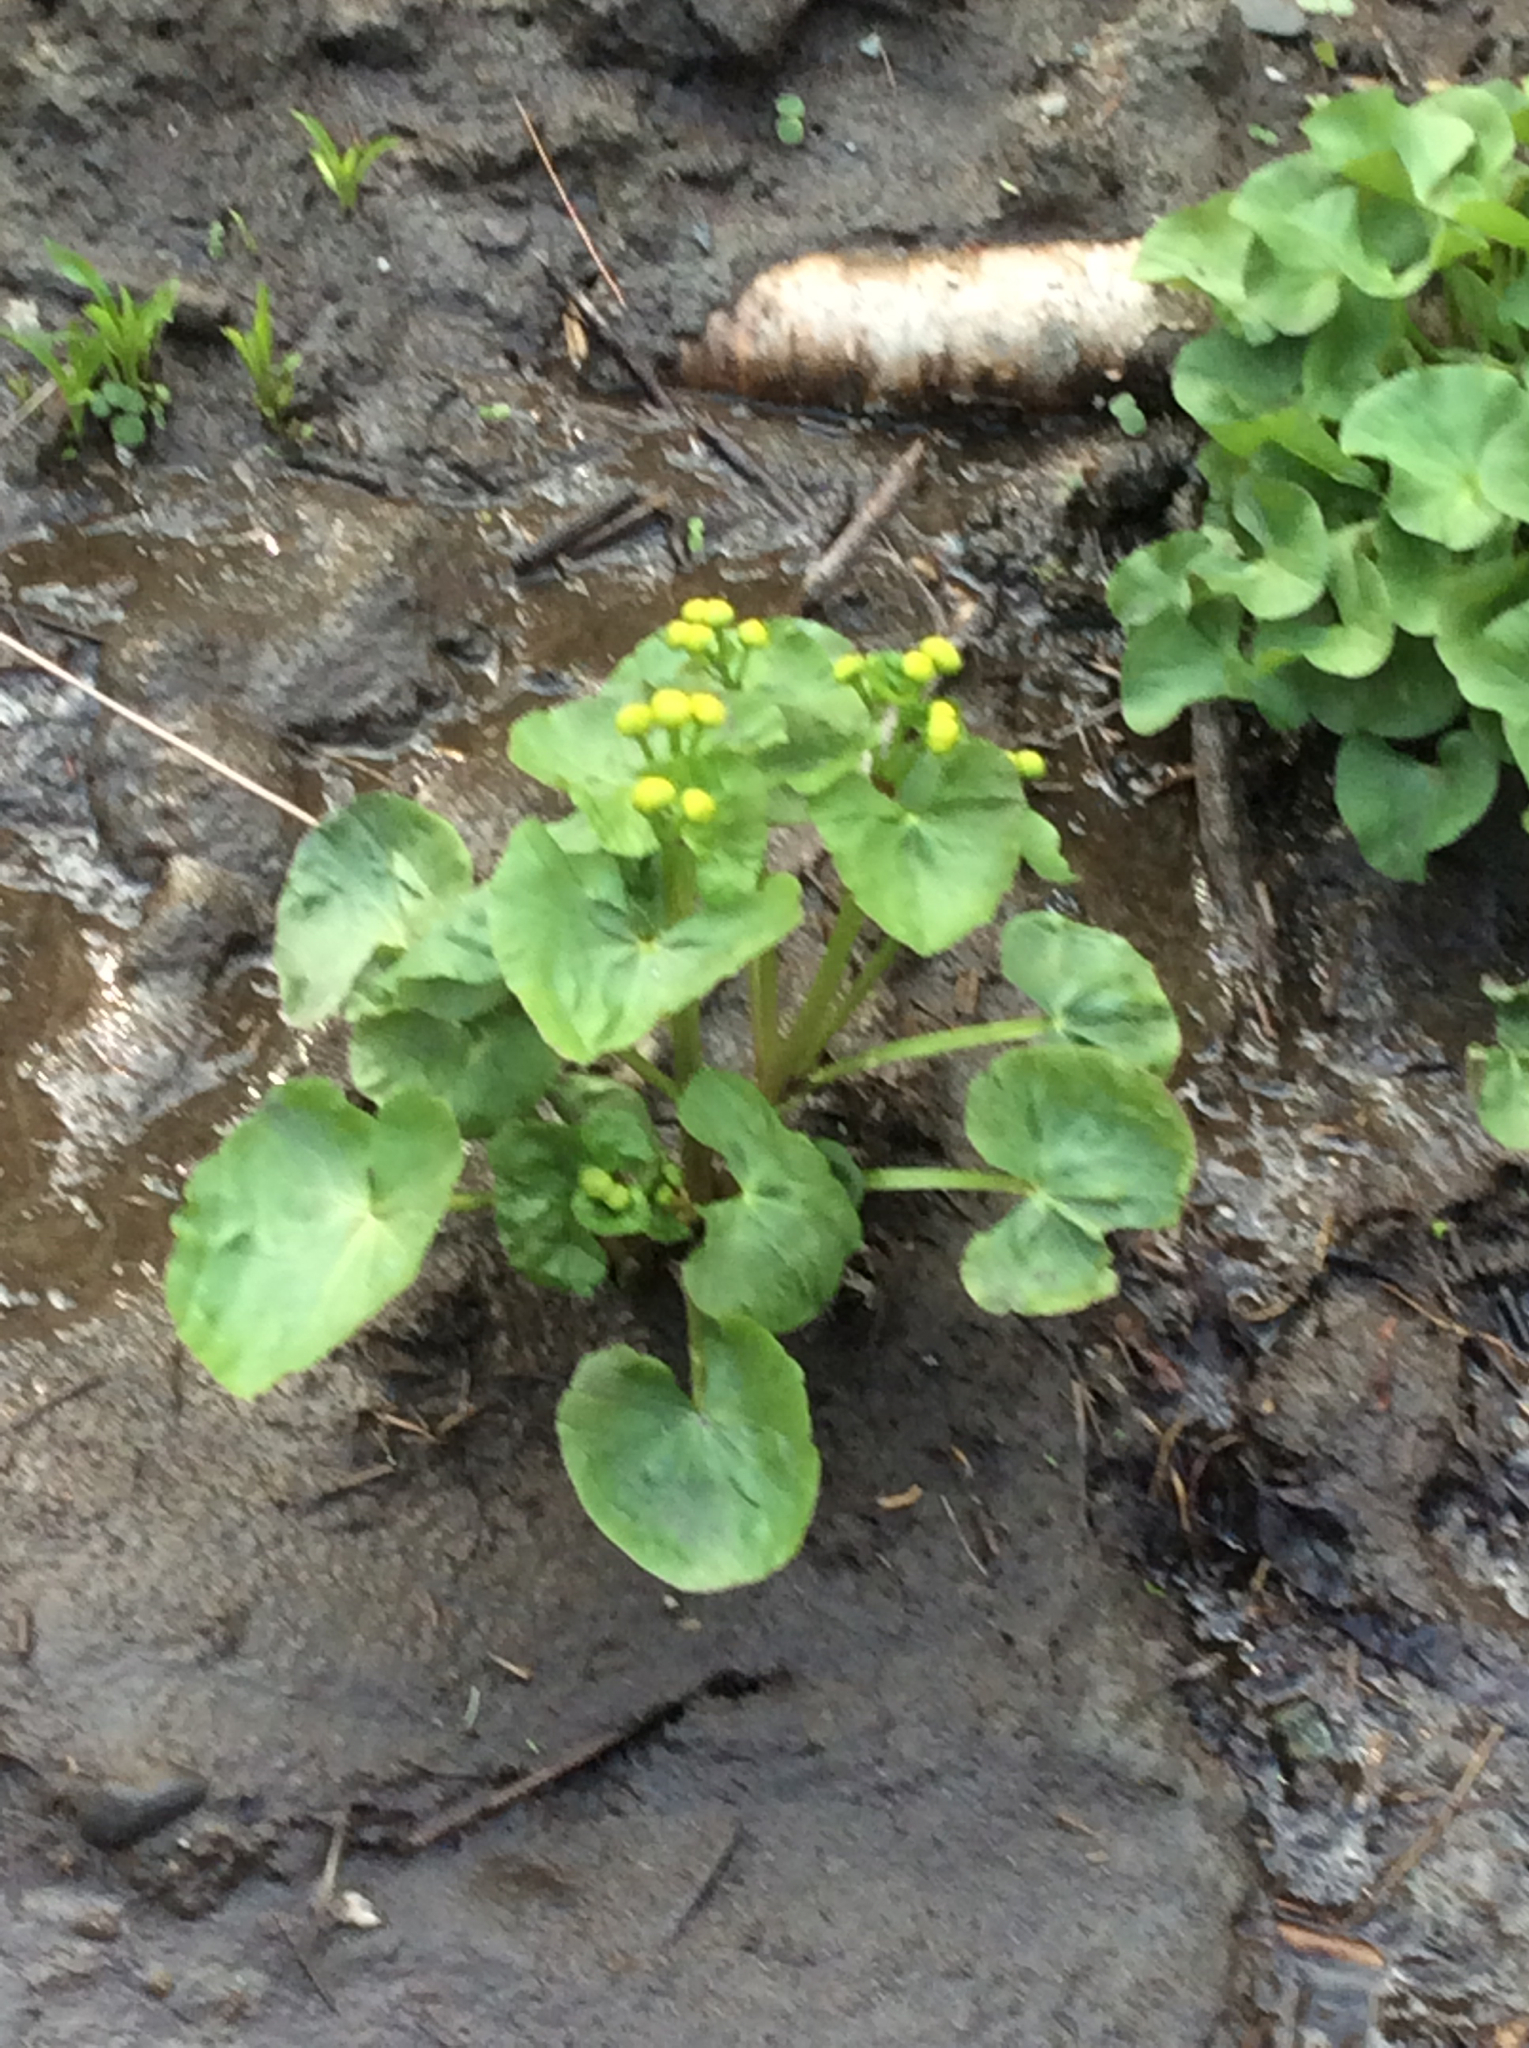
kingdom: Plantae
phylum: Tracheophyta
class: Magnoliopsida
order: Ranunculales
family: Ranunculaceae
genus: Caltha
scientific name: Caltha palustris
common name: Marsh marigold
